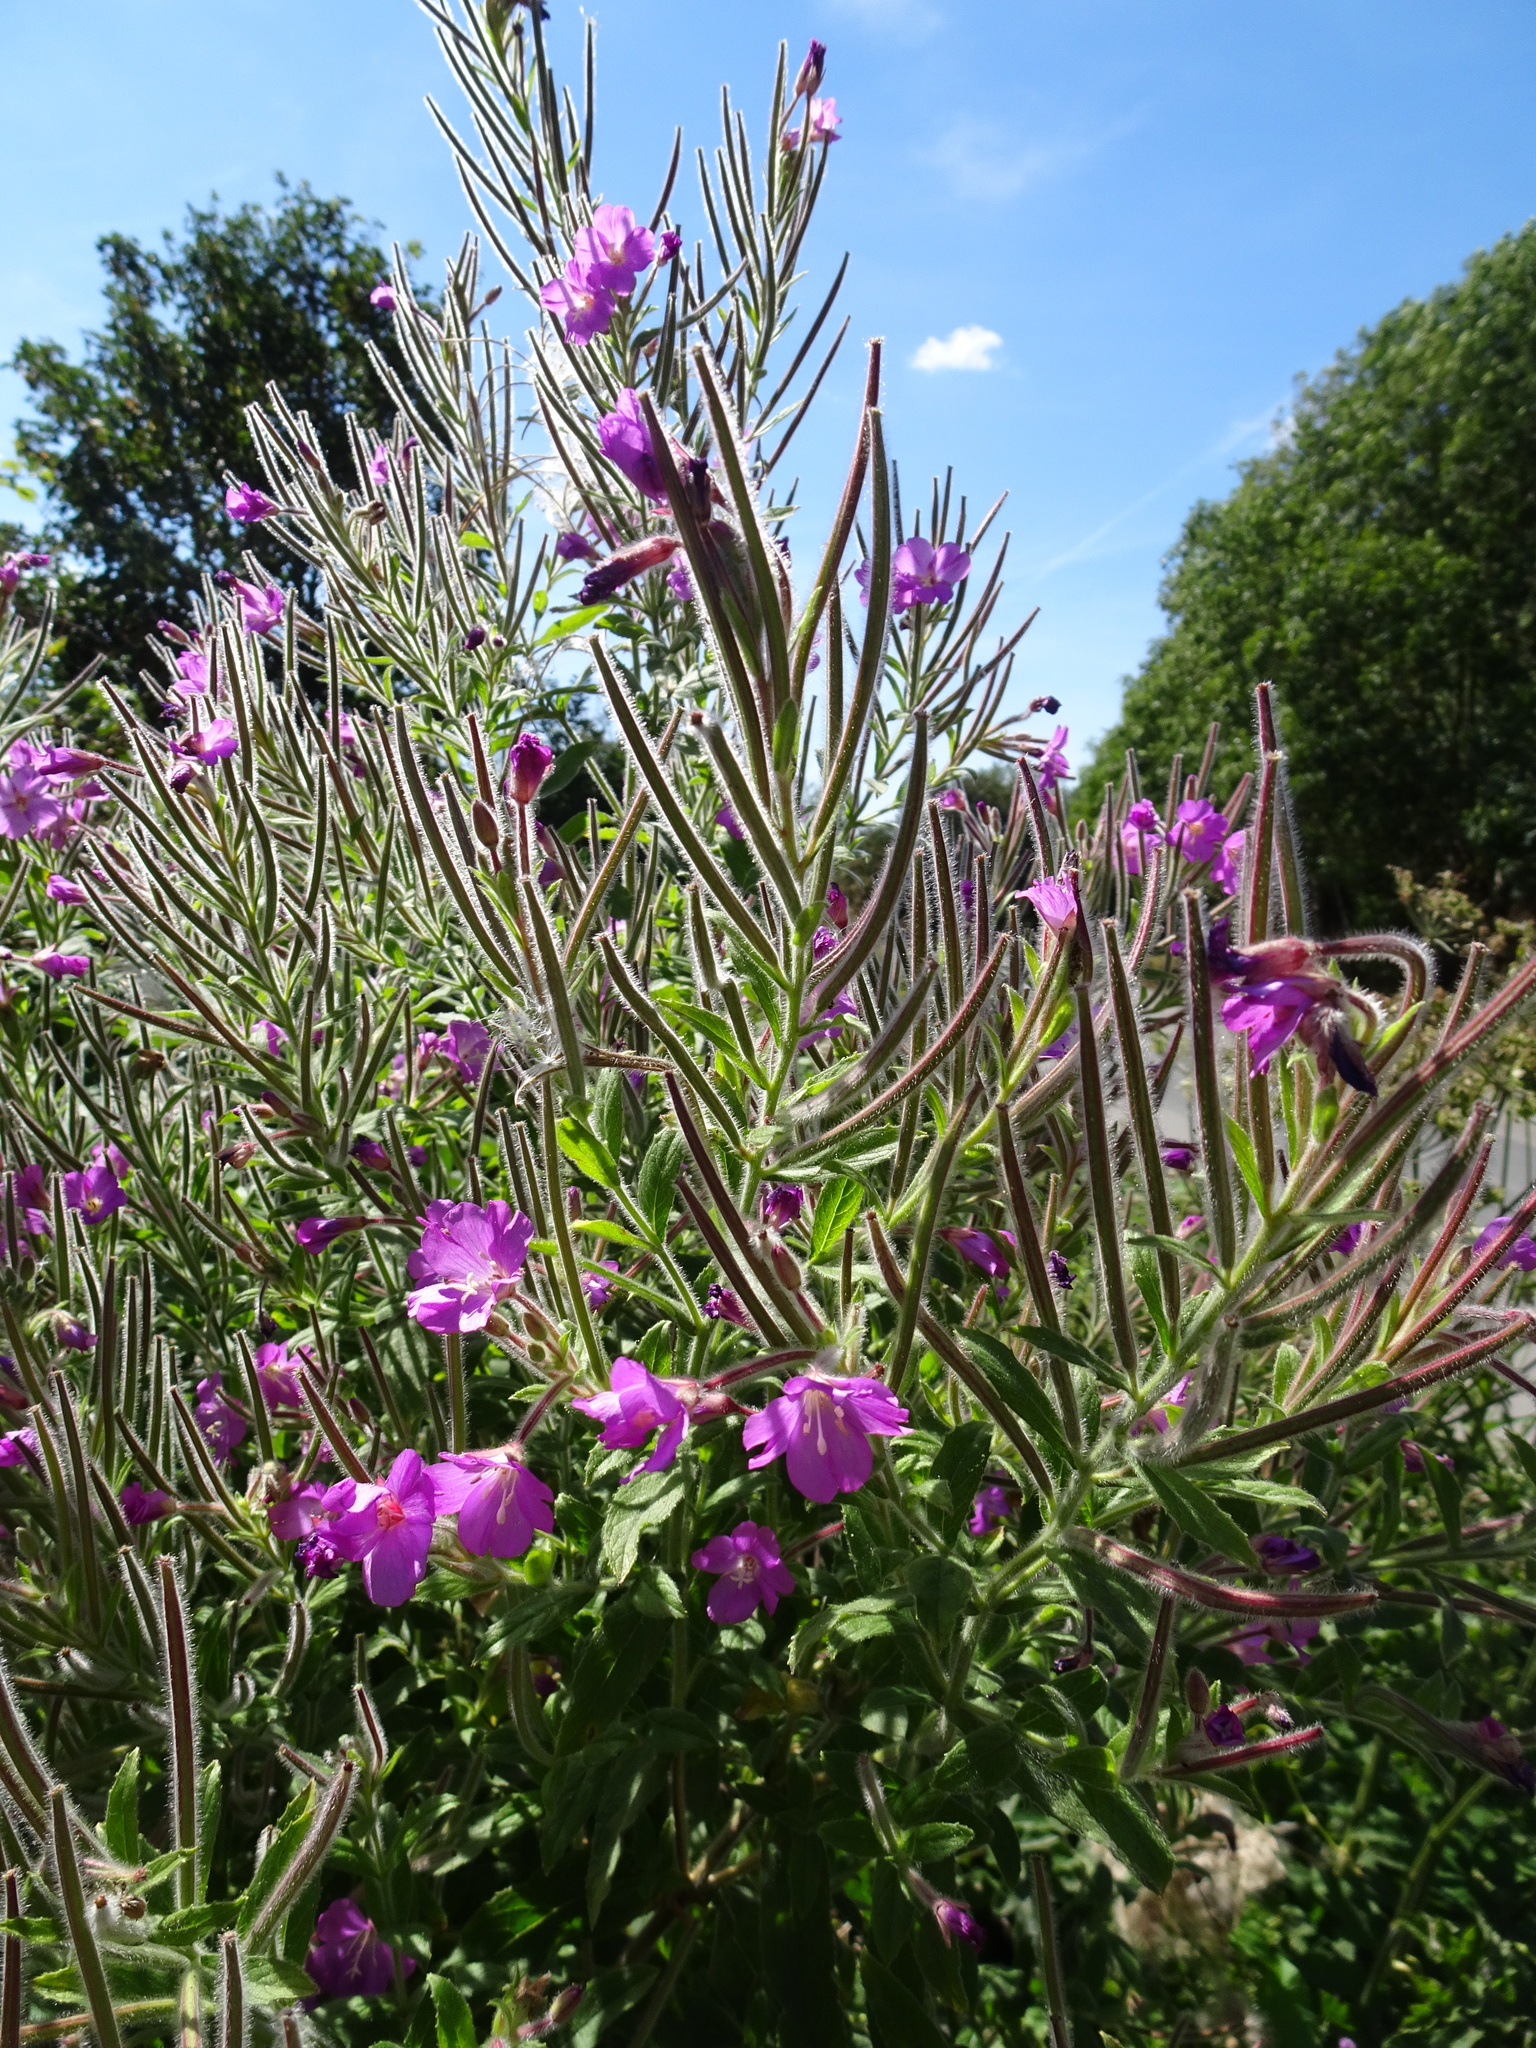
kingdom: Plantae
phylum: Tracheophyta
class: Magnoliopsida
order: Myrtales
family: Onagraceae
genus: Epilobium
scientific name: Epilobium hirsutum
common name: Great willowherb
